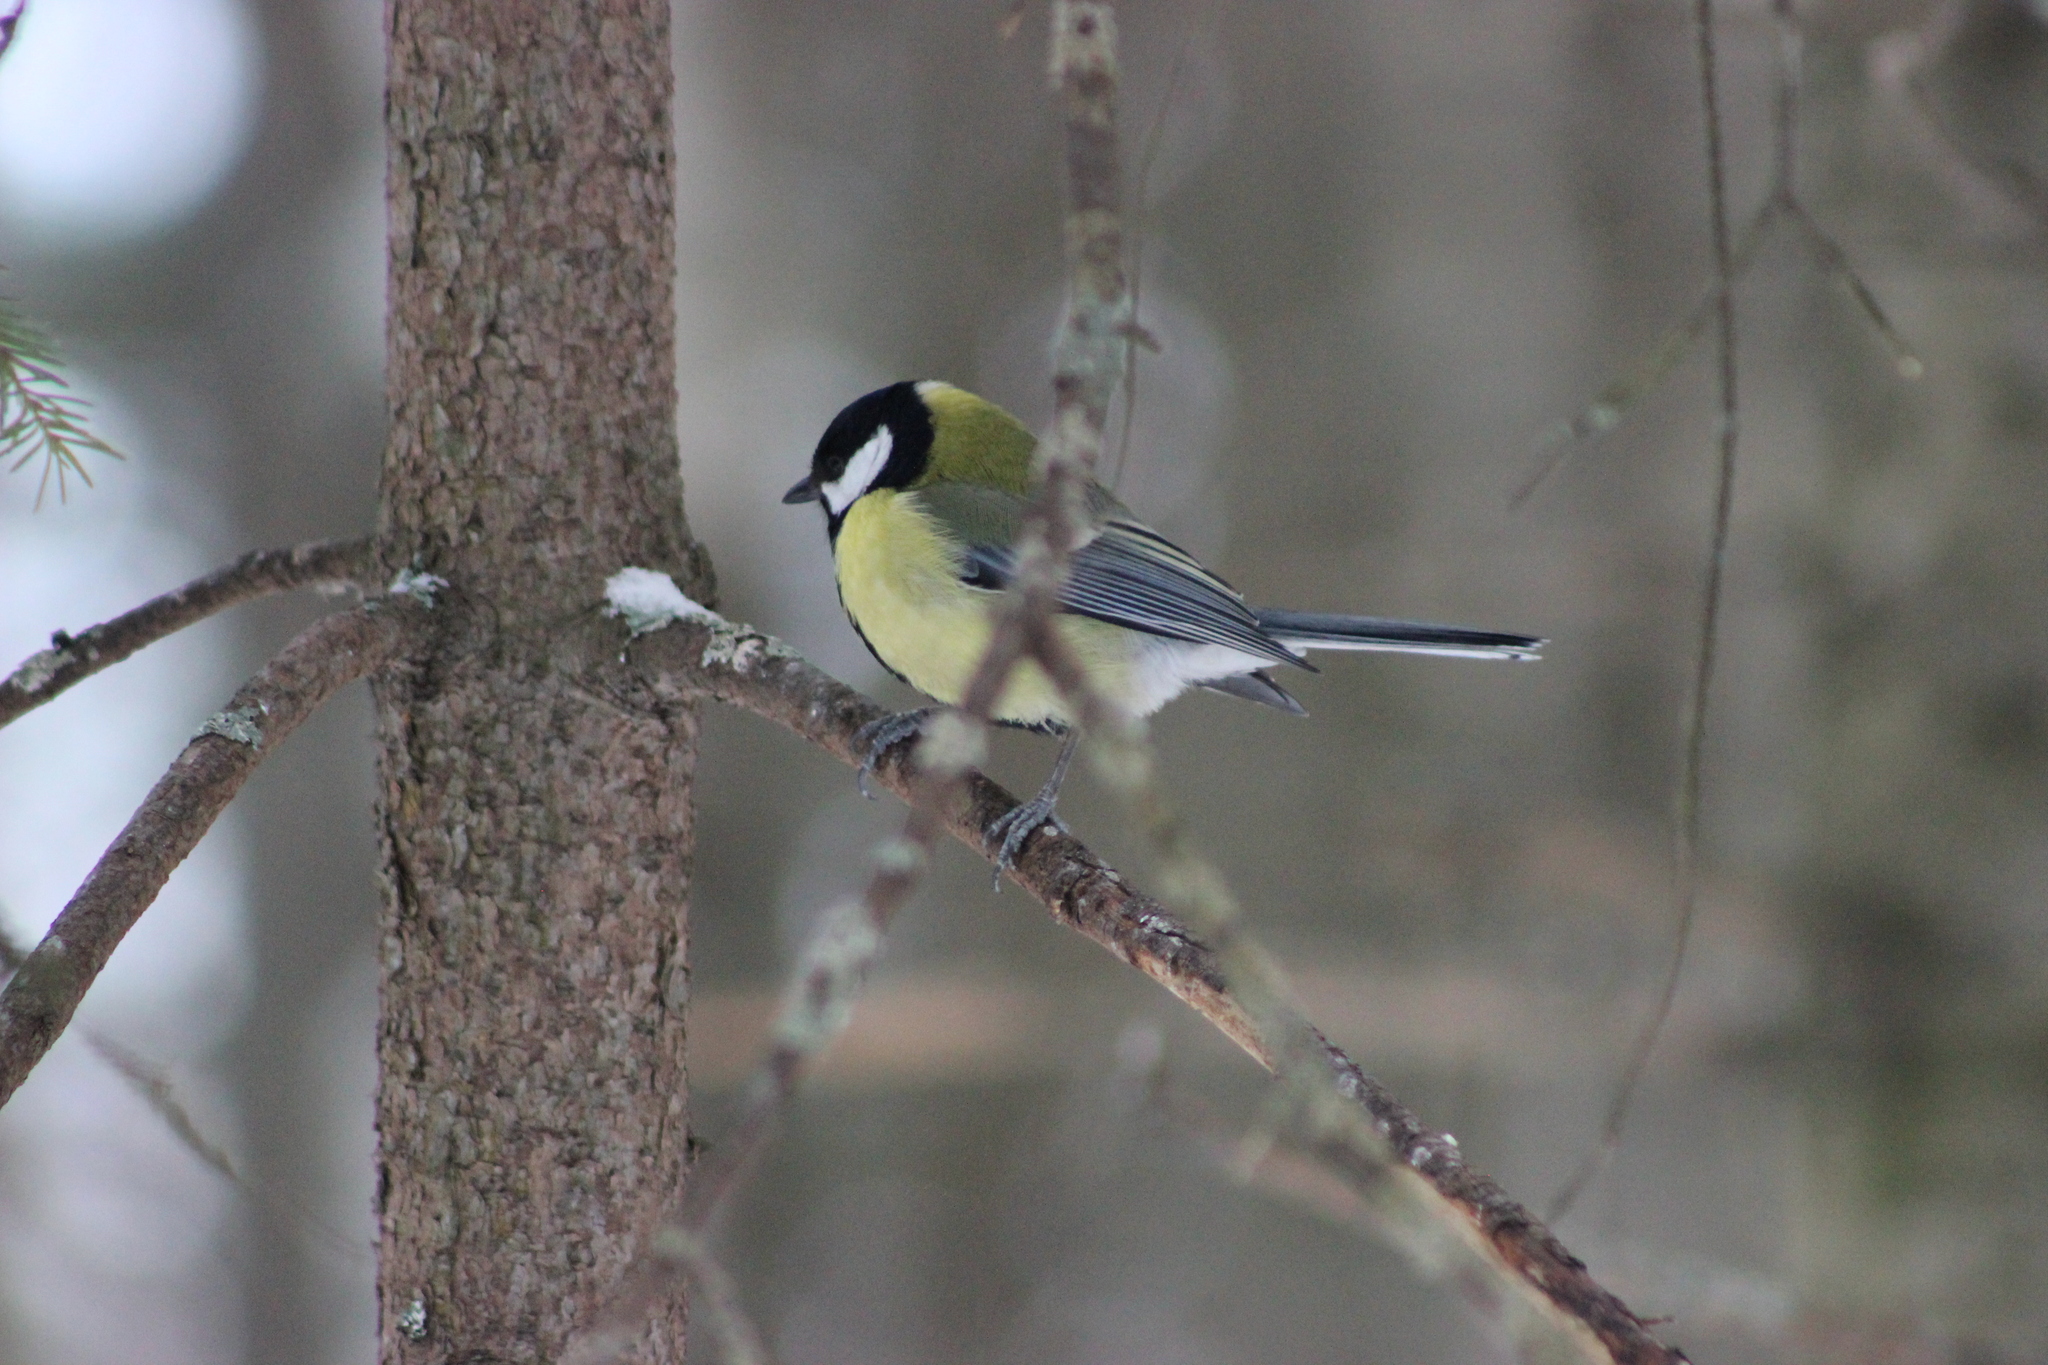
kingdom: Animalia
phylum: Chordata
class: Aves
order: Passeriformes
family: Paridae
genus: Parus
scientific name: Parus major
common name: Great tit
